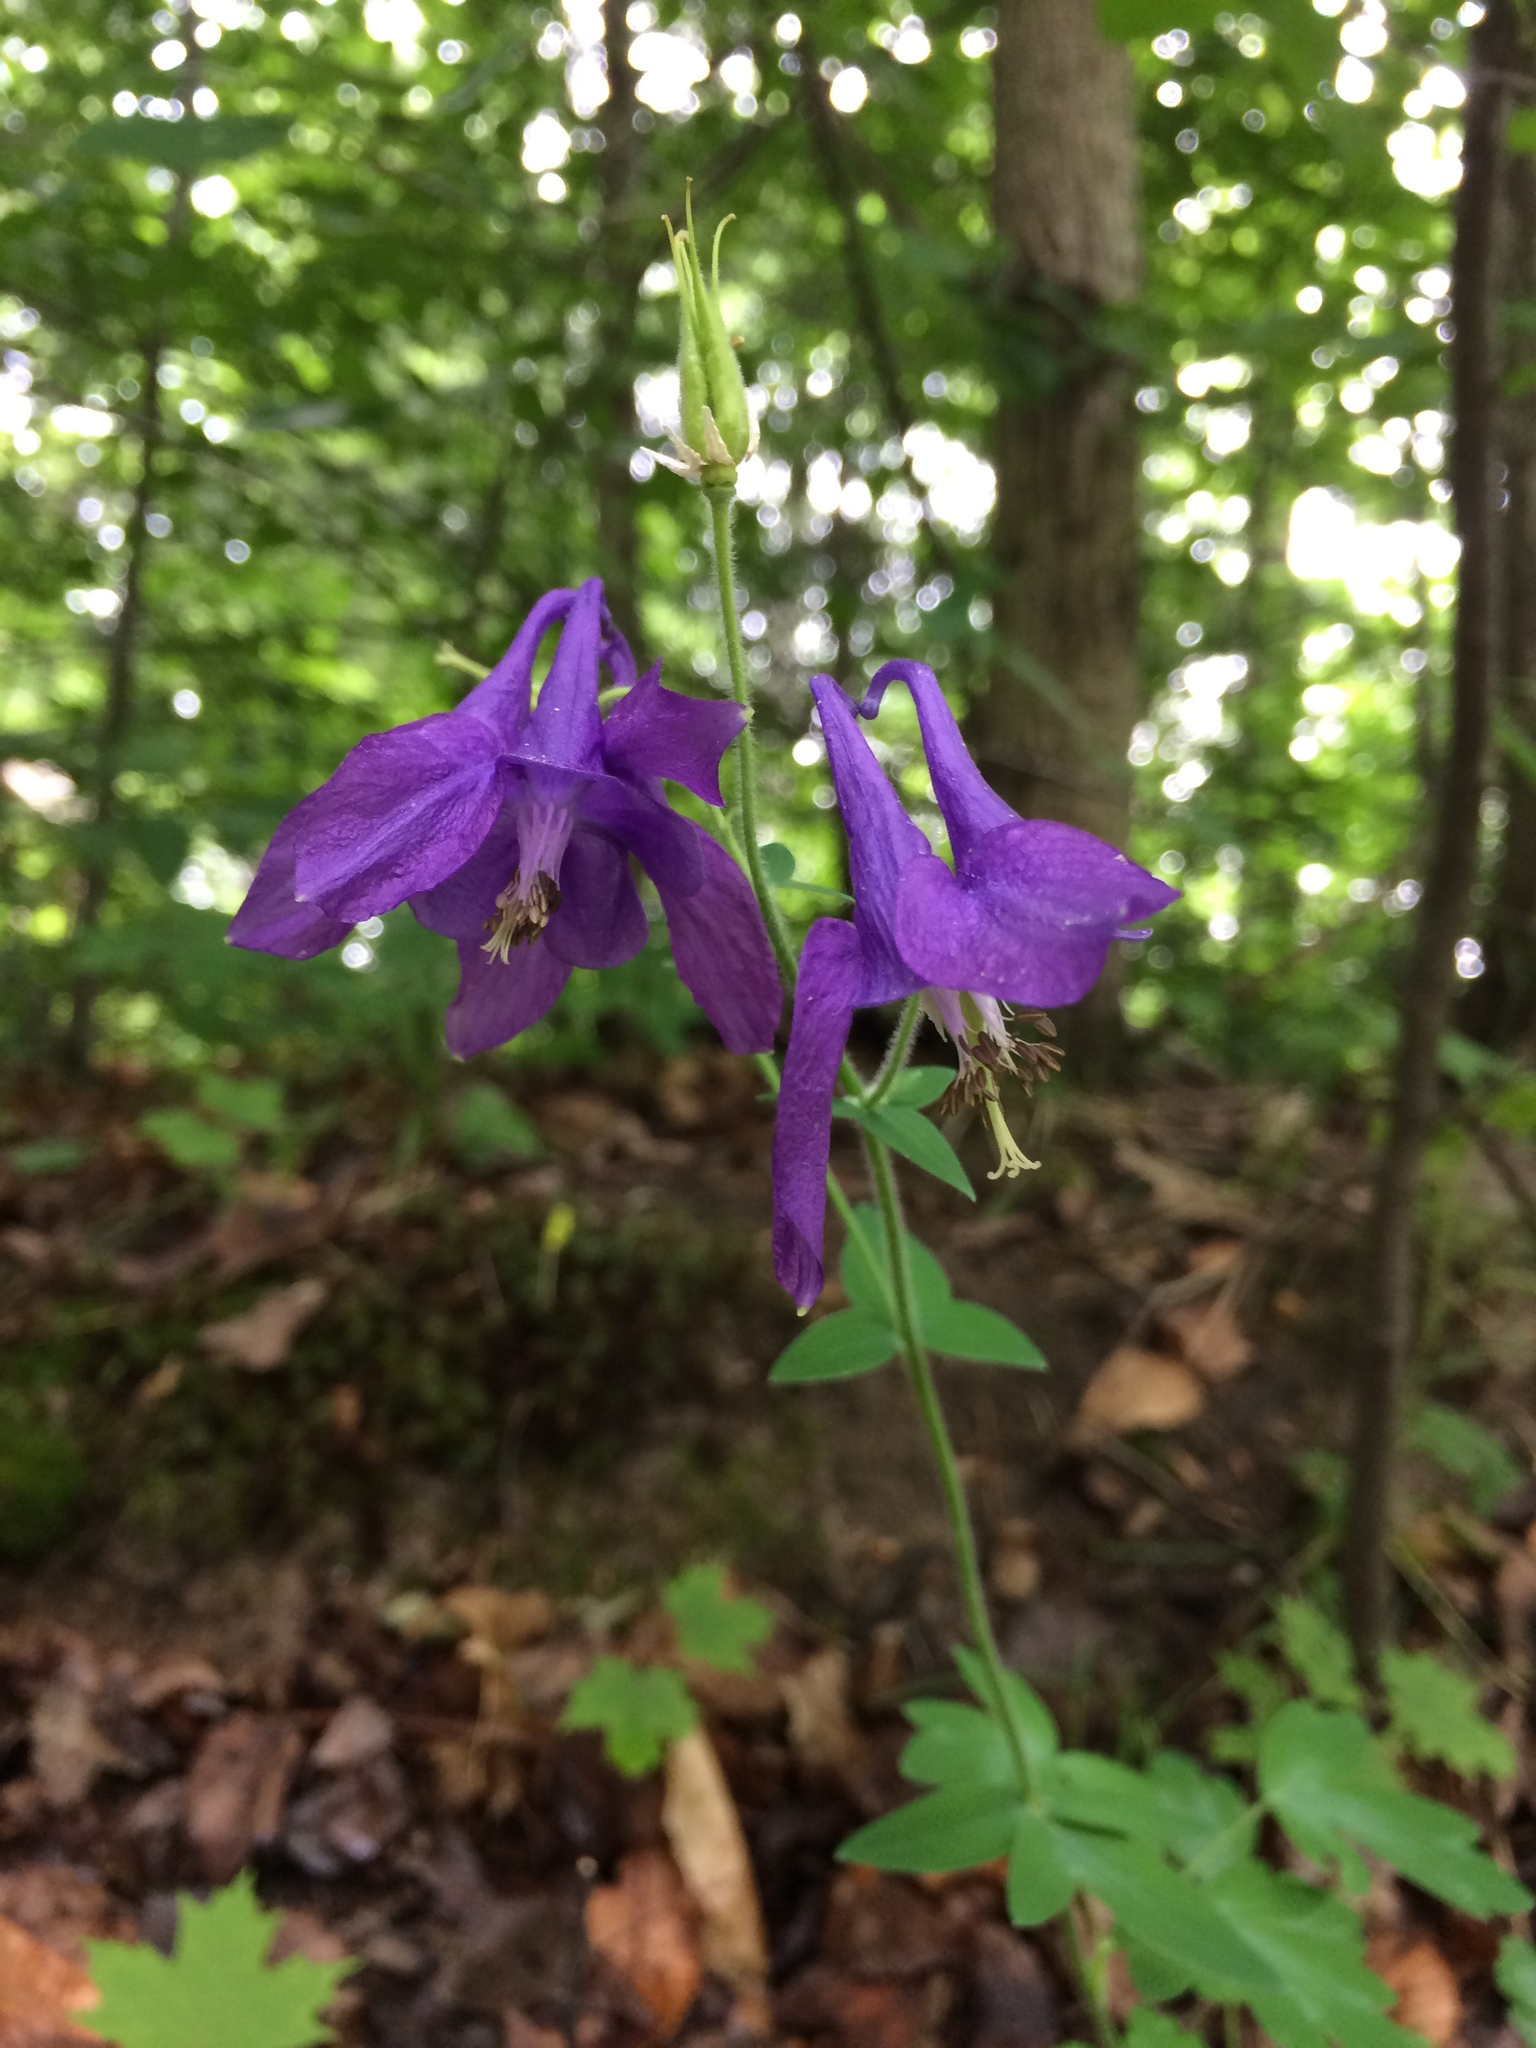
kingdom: Plantae
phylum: Tracheophyta
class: Magnoliopsida
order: Ranunculales
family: Ranunculaceae
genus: Aquilegia
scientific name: Aquilegia vulgaris
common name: Columbine
